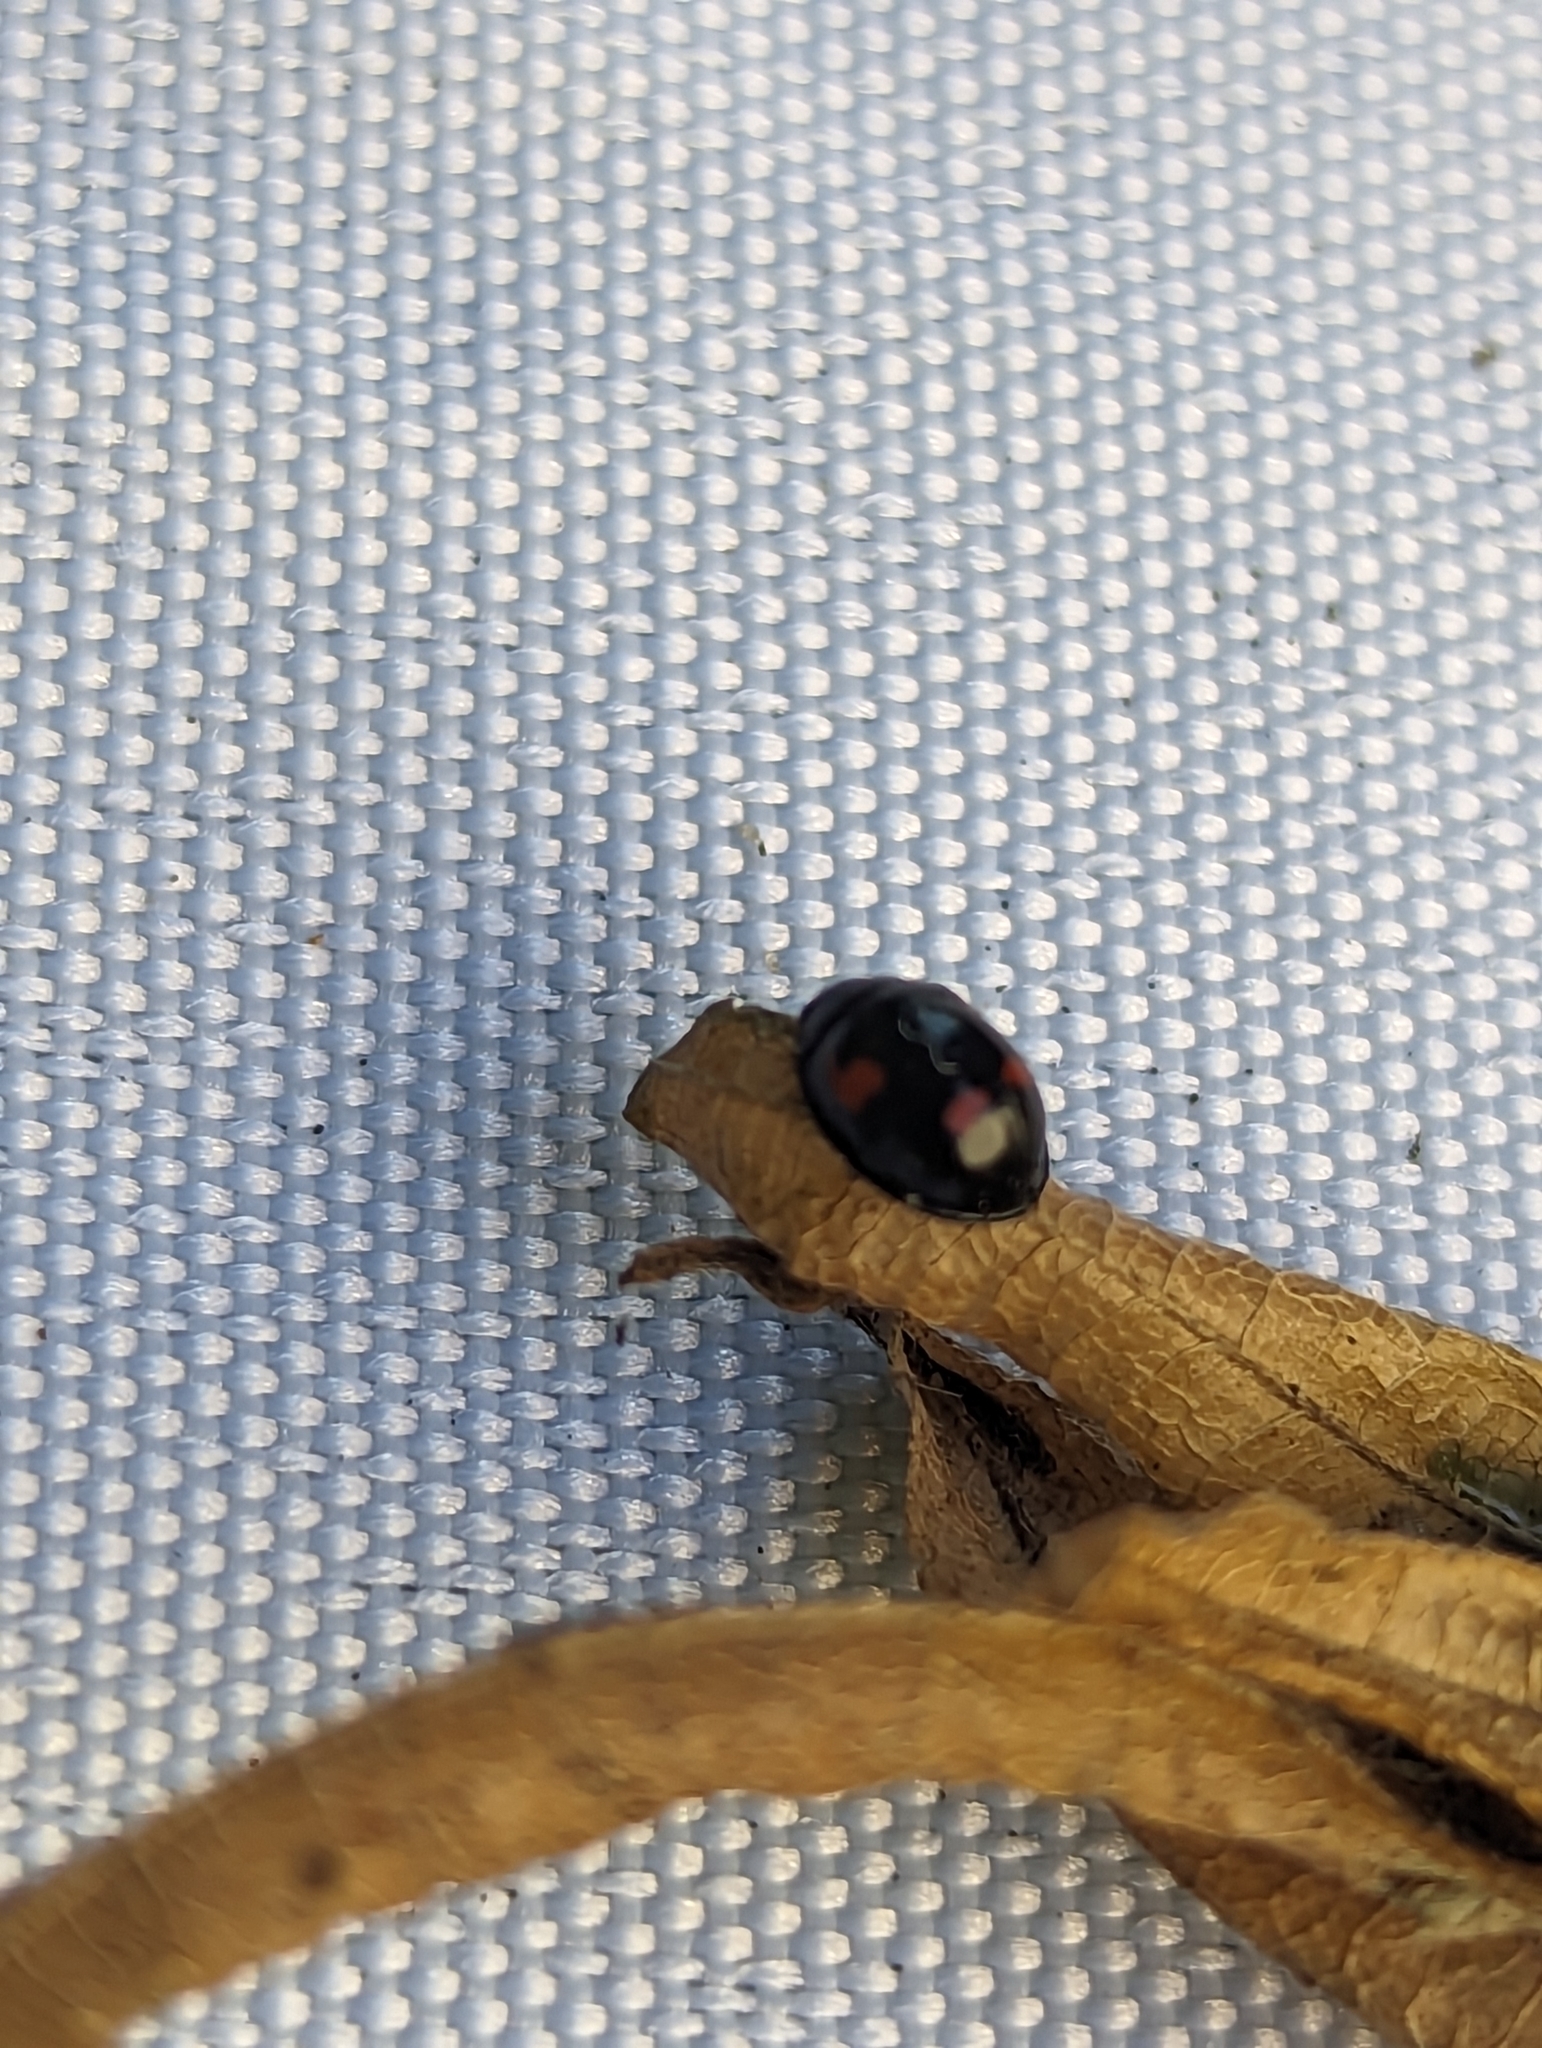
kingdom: Animalia
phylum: Arthropoda
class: Insecta
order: Coleoptera
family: Coccinellidae
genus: Brumus
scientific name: Brumus quadripustulatus
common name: Ladybird beetle
